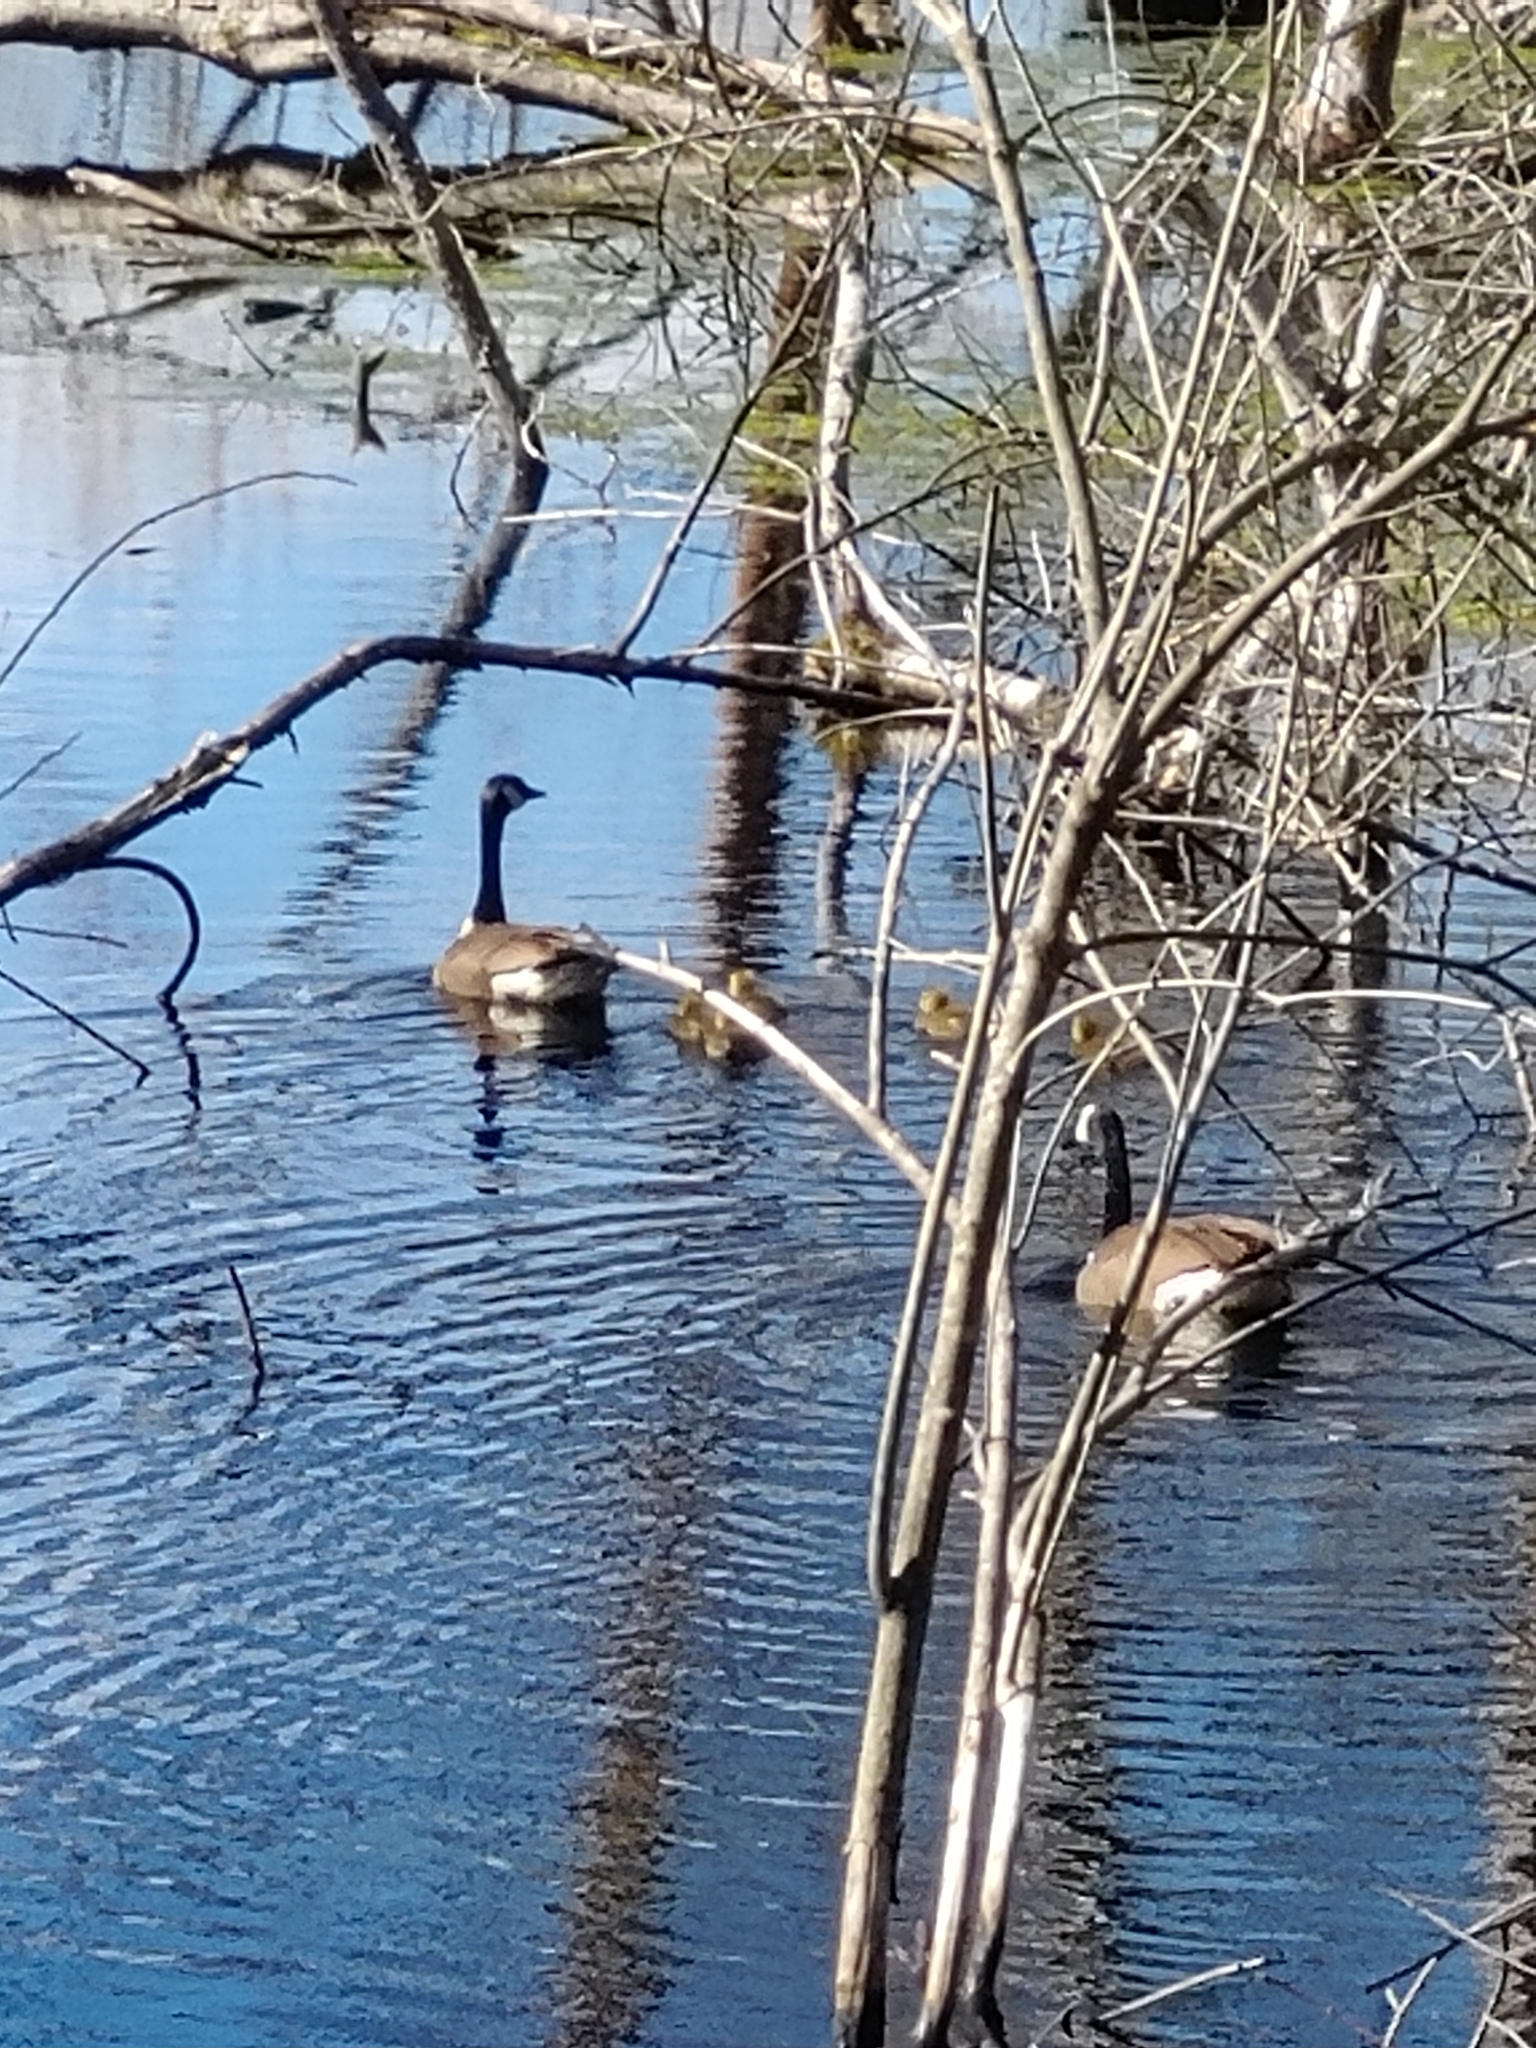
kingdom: Animalia
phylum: Chordata
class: Aves
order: Anseriformes
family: Anatidae
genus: Branta
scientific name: Branta canadensis
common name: Canada goose
